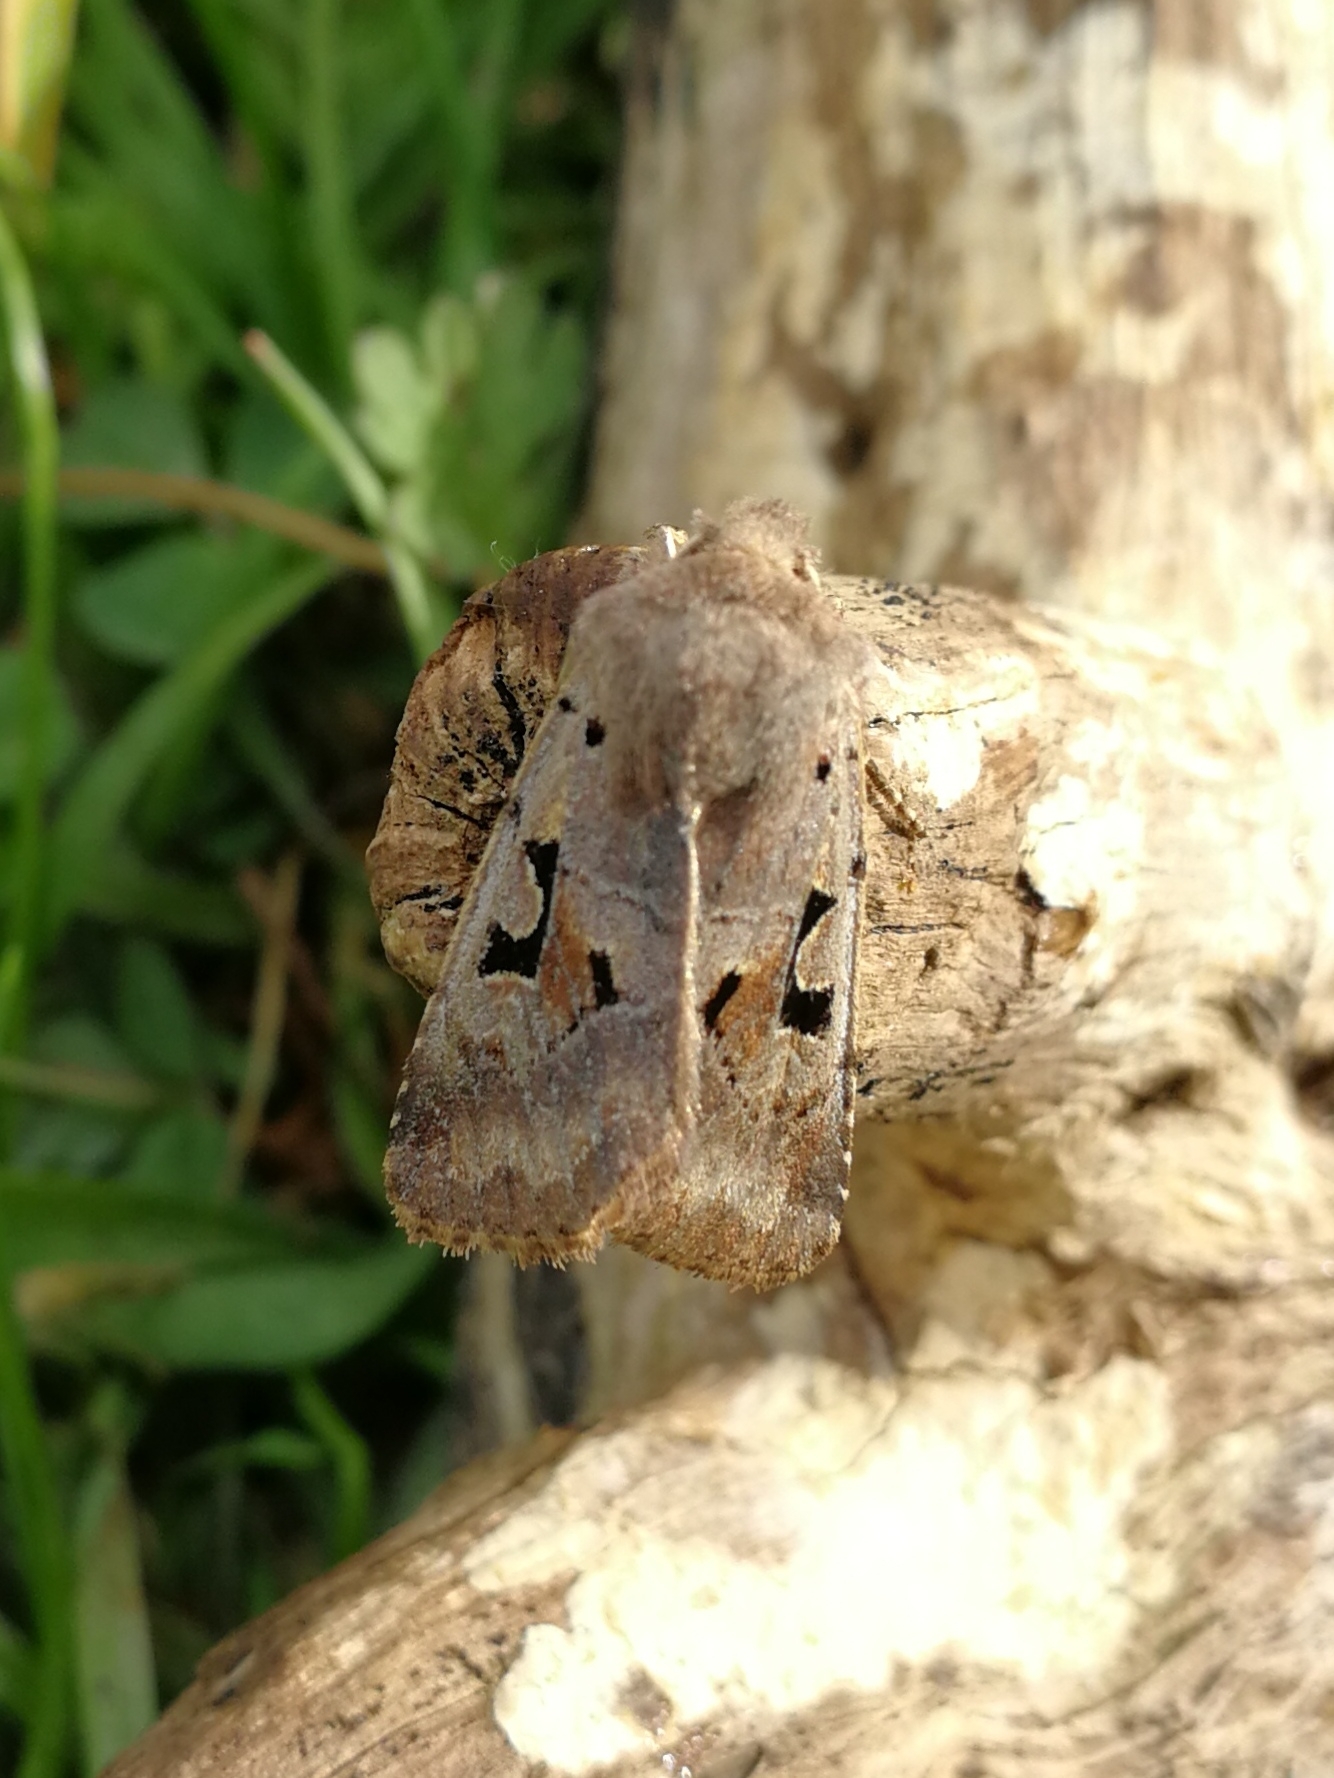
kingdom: Animalia
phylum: Arthropoda
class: Insecta
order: Lepidoptera
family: Noctuidae
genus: Orthosia
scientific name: Orthosia gothica
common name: Hebrew character
